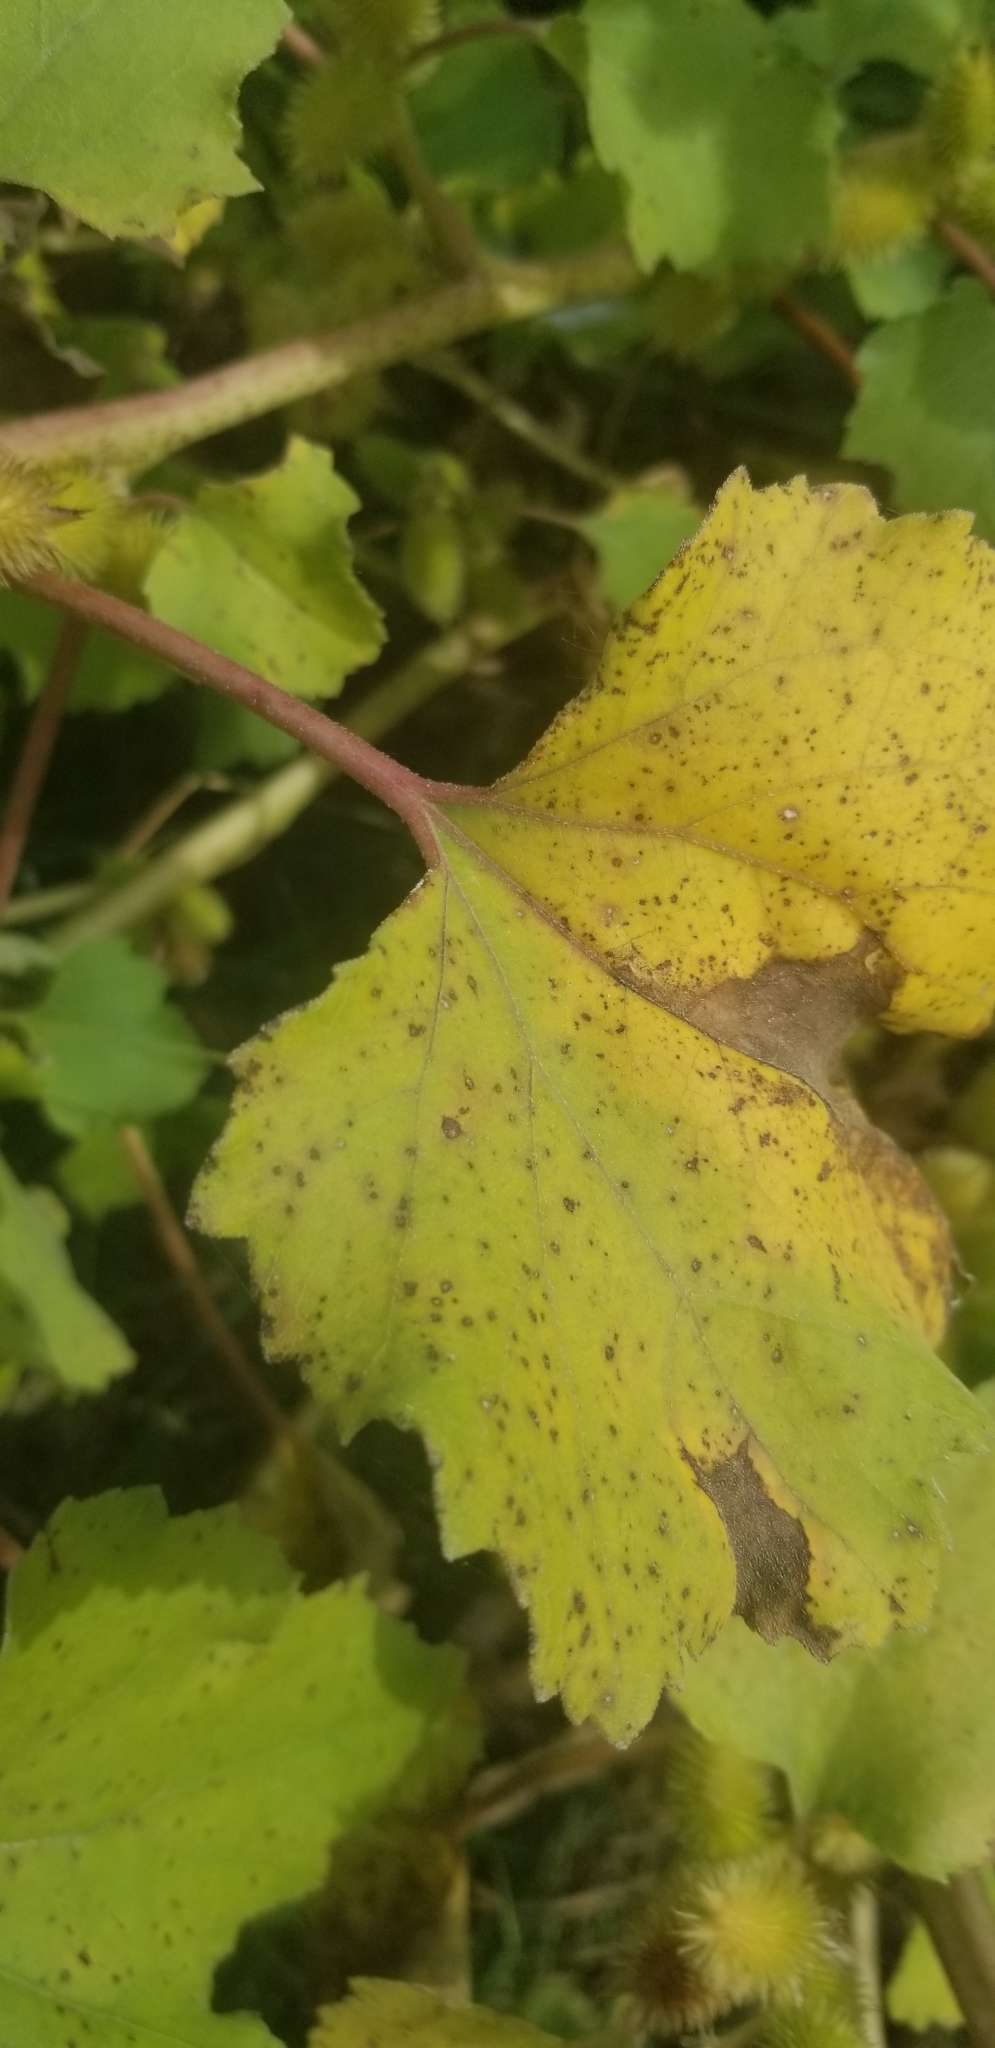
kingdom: Plantae
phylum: Tracheophyta
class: Magnoliopsida
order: Asterales
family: Asteraceae
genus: Xanthium
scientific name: Xanthium strumarium
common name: Rough cocklebur
